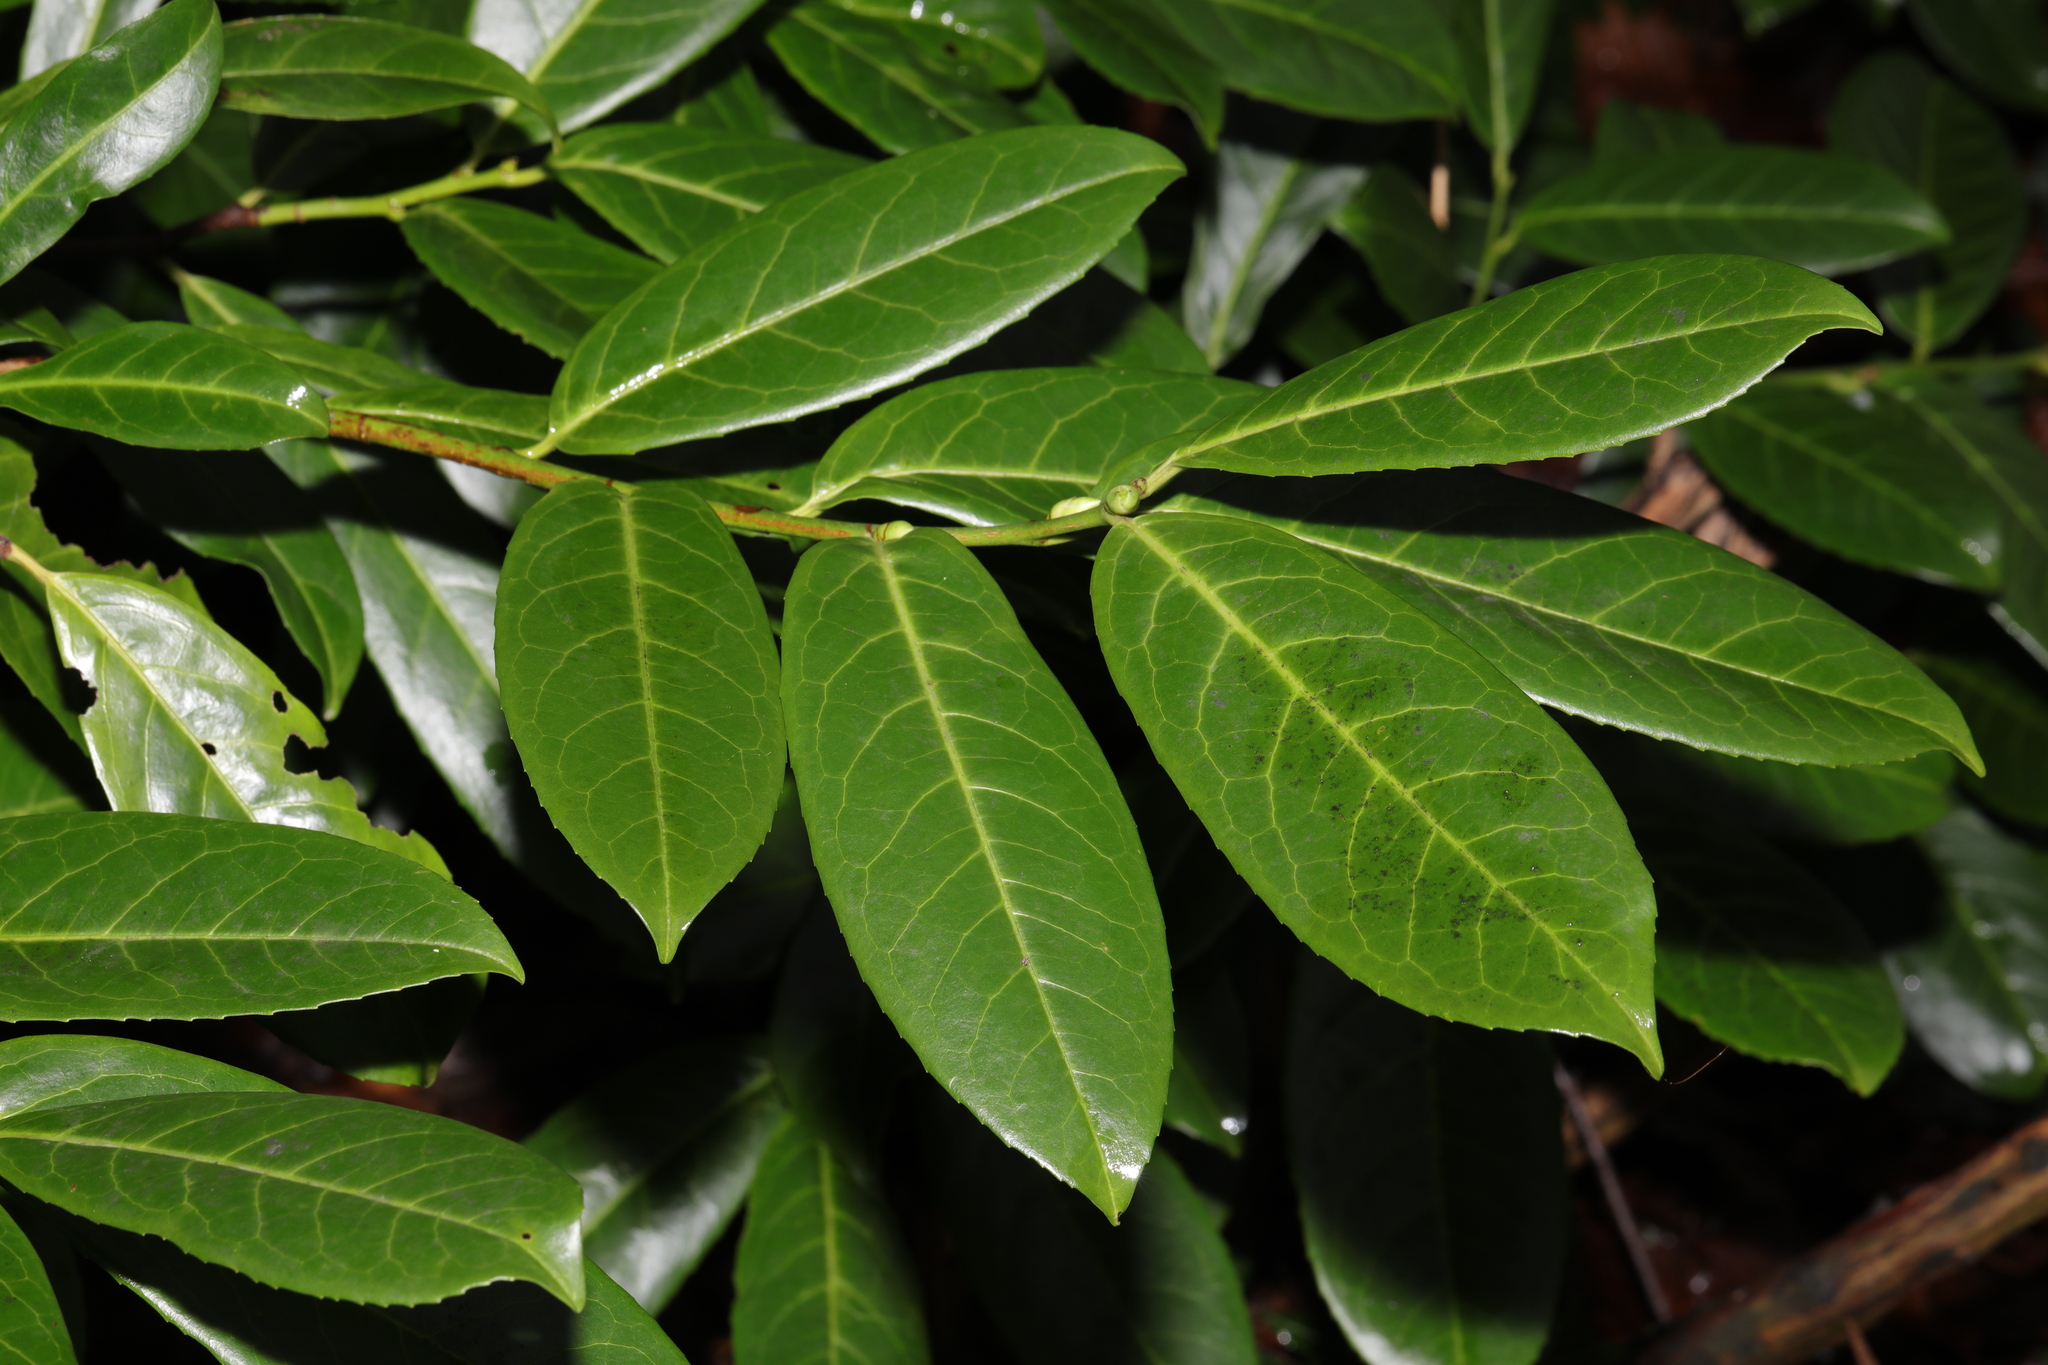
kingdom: Plantae
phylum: Tracheophyta
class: Magnoliopsida
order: Rosales
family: Rosaceae
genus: Prunus
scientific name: Prunus laurocerasus
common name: Cherry laurel
